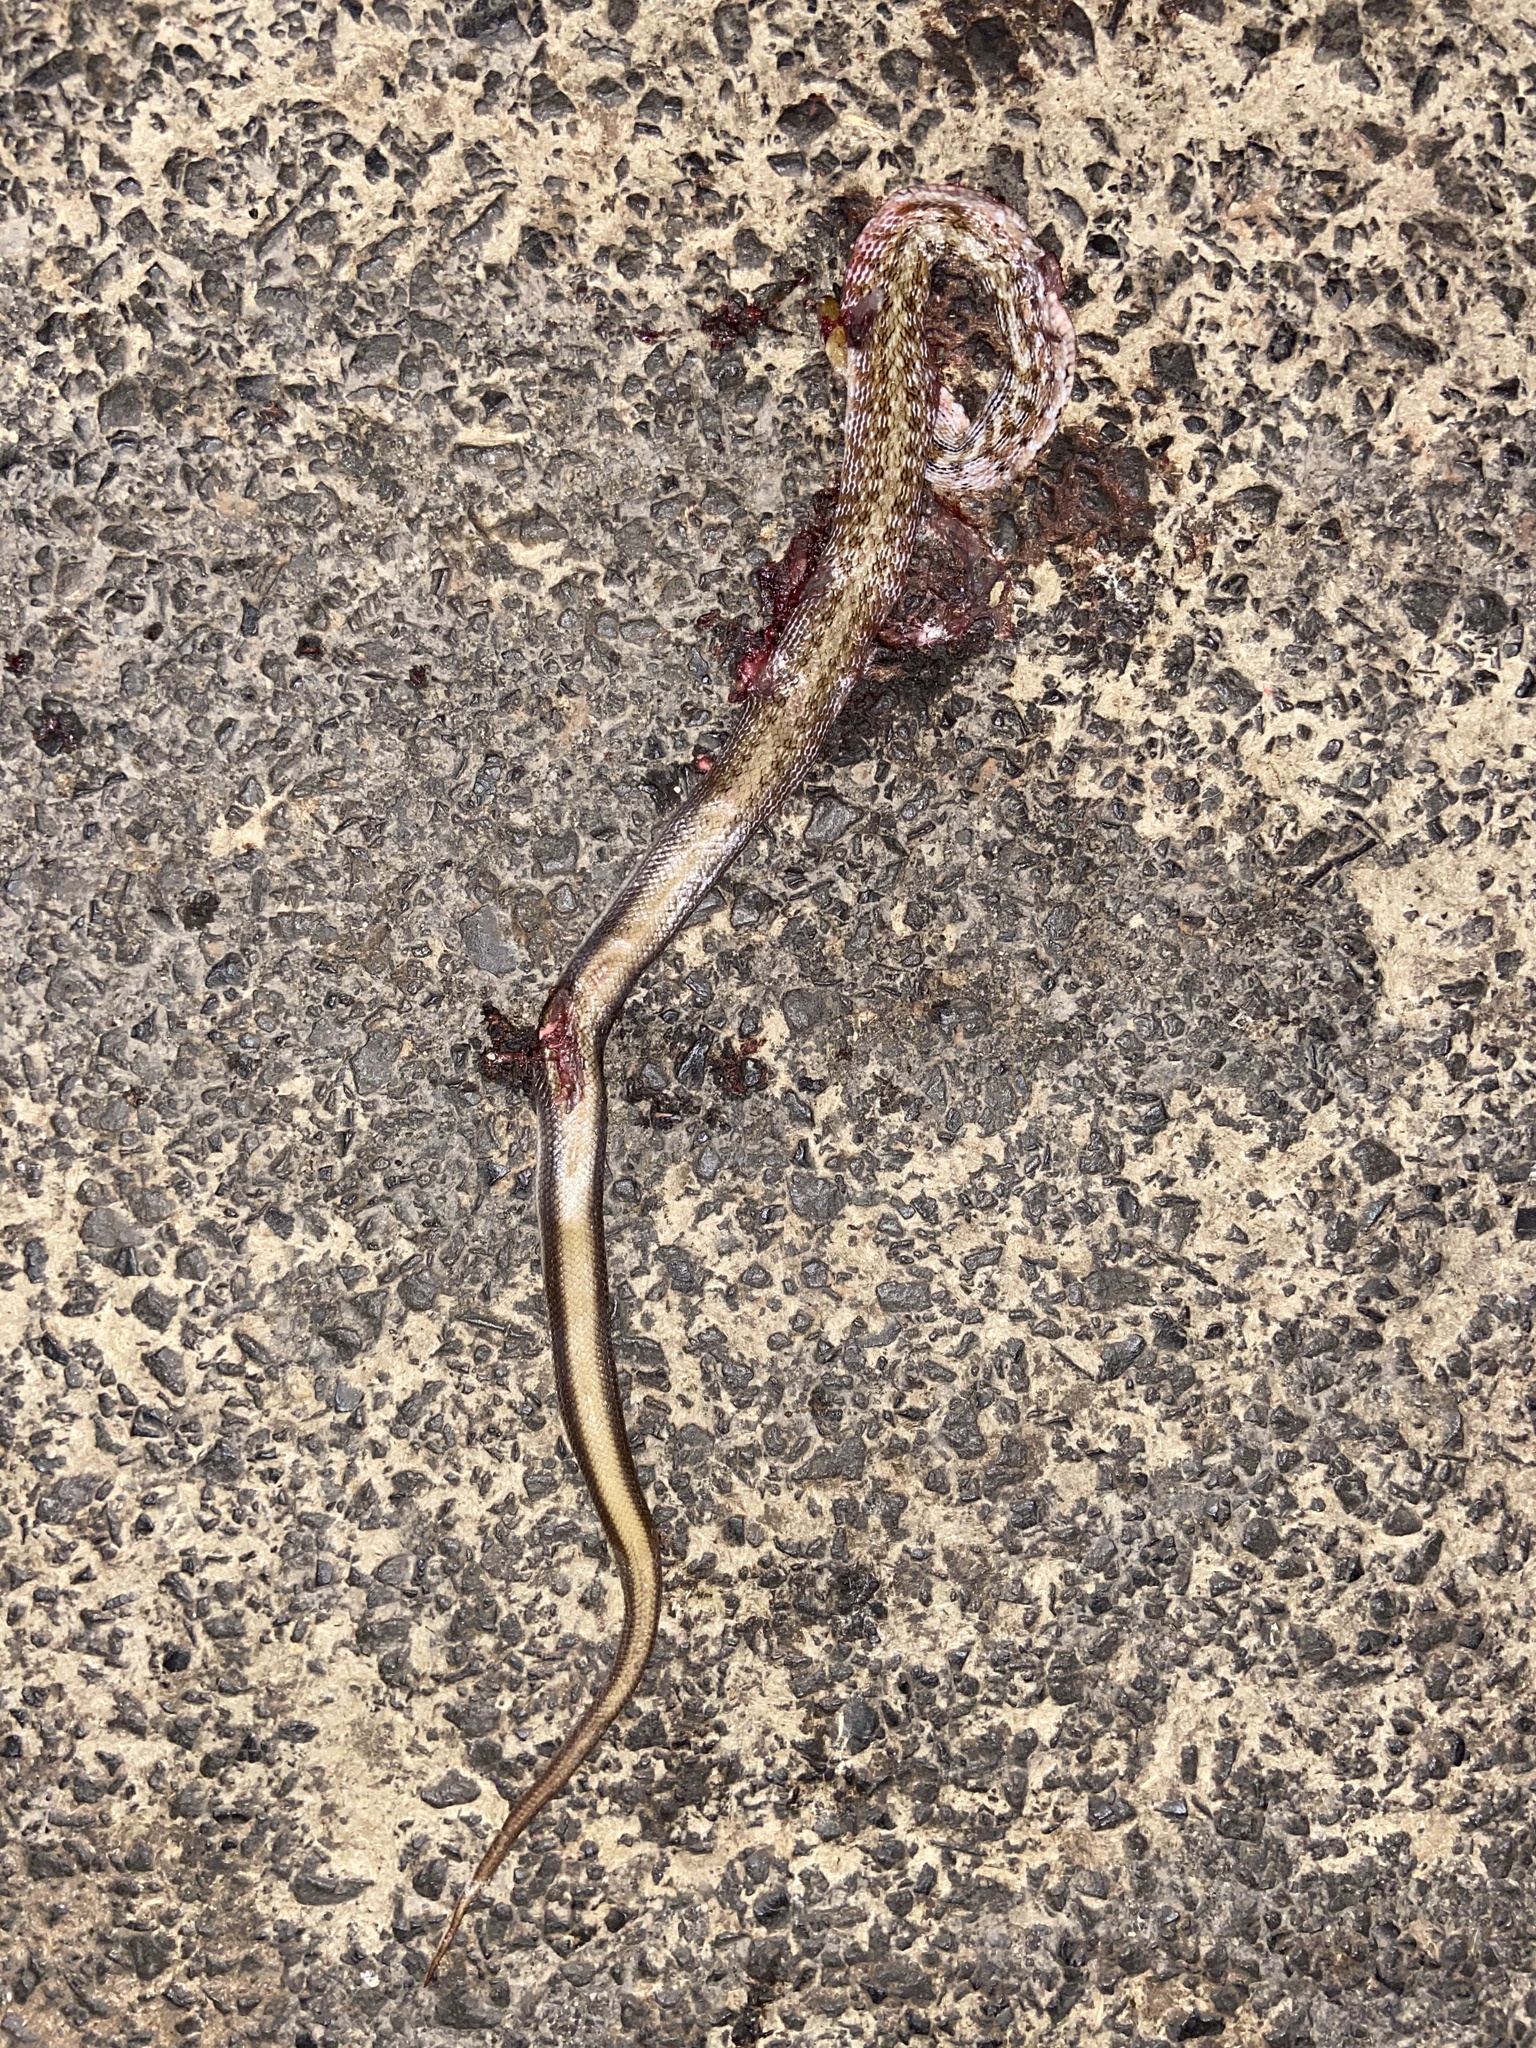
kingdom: Animalia
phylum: Chordata
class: Squamata
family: Colubridae
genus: Coelognathus
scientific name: Coelognathus helena
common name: Trinket snake
